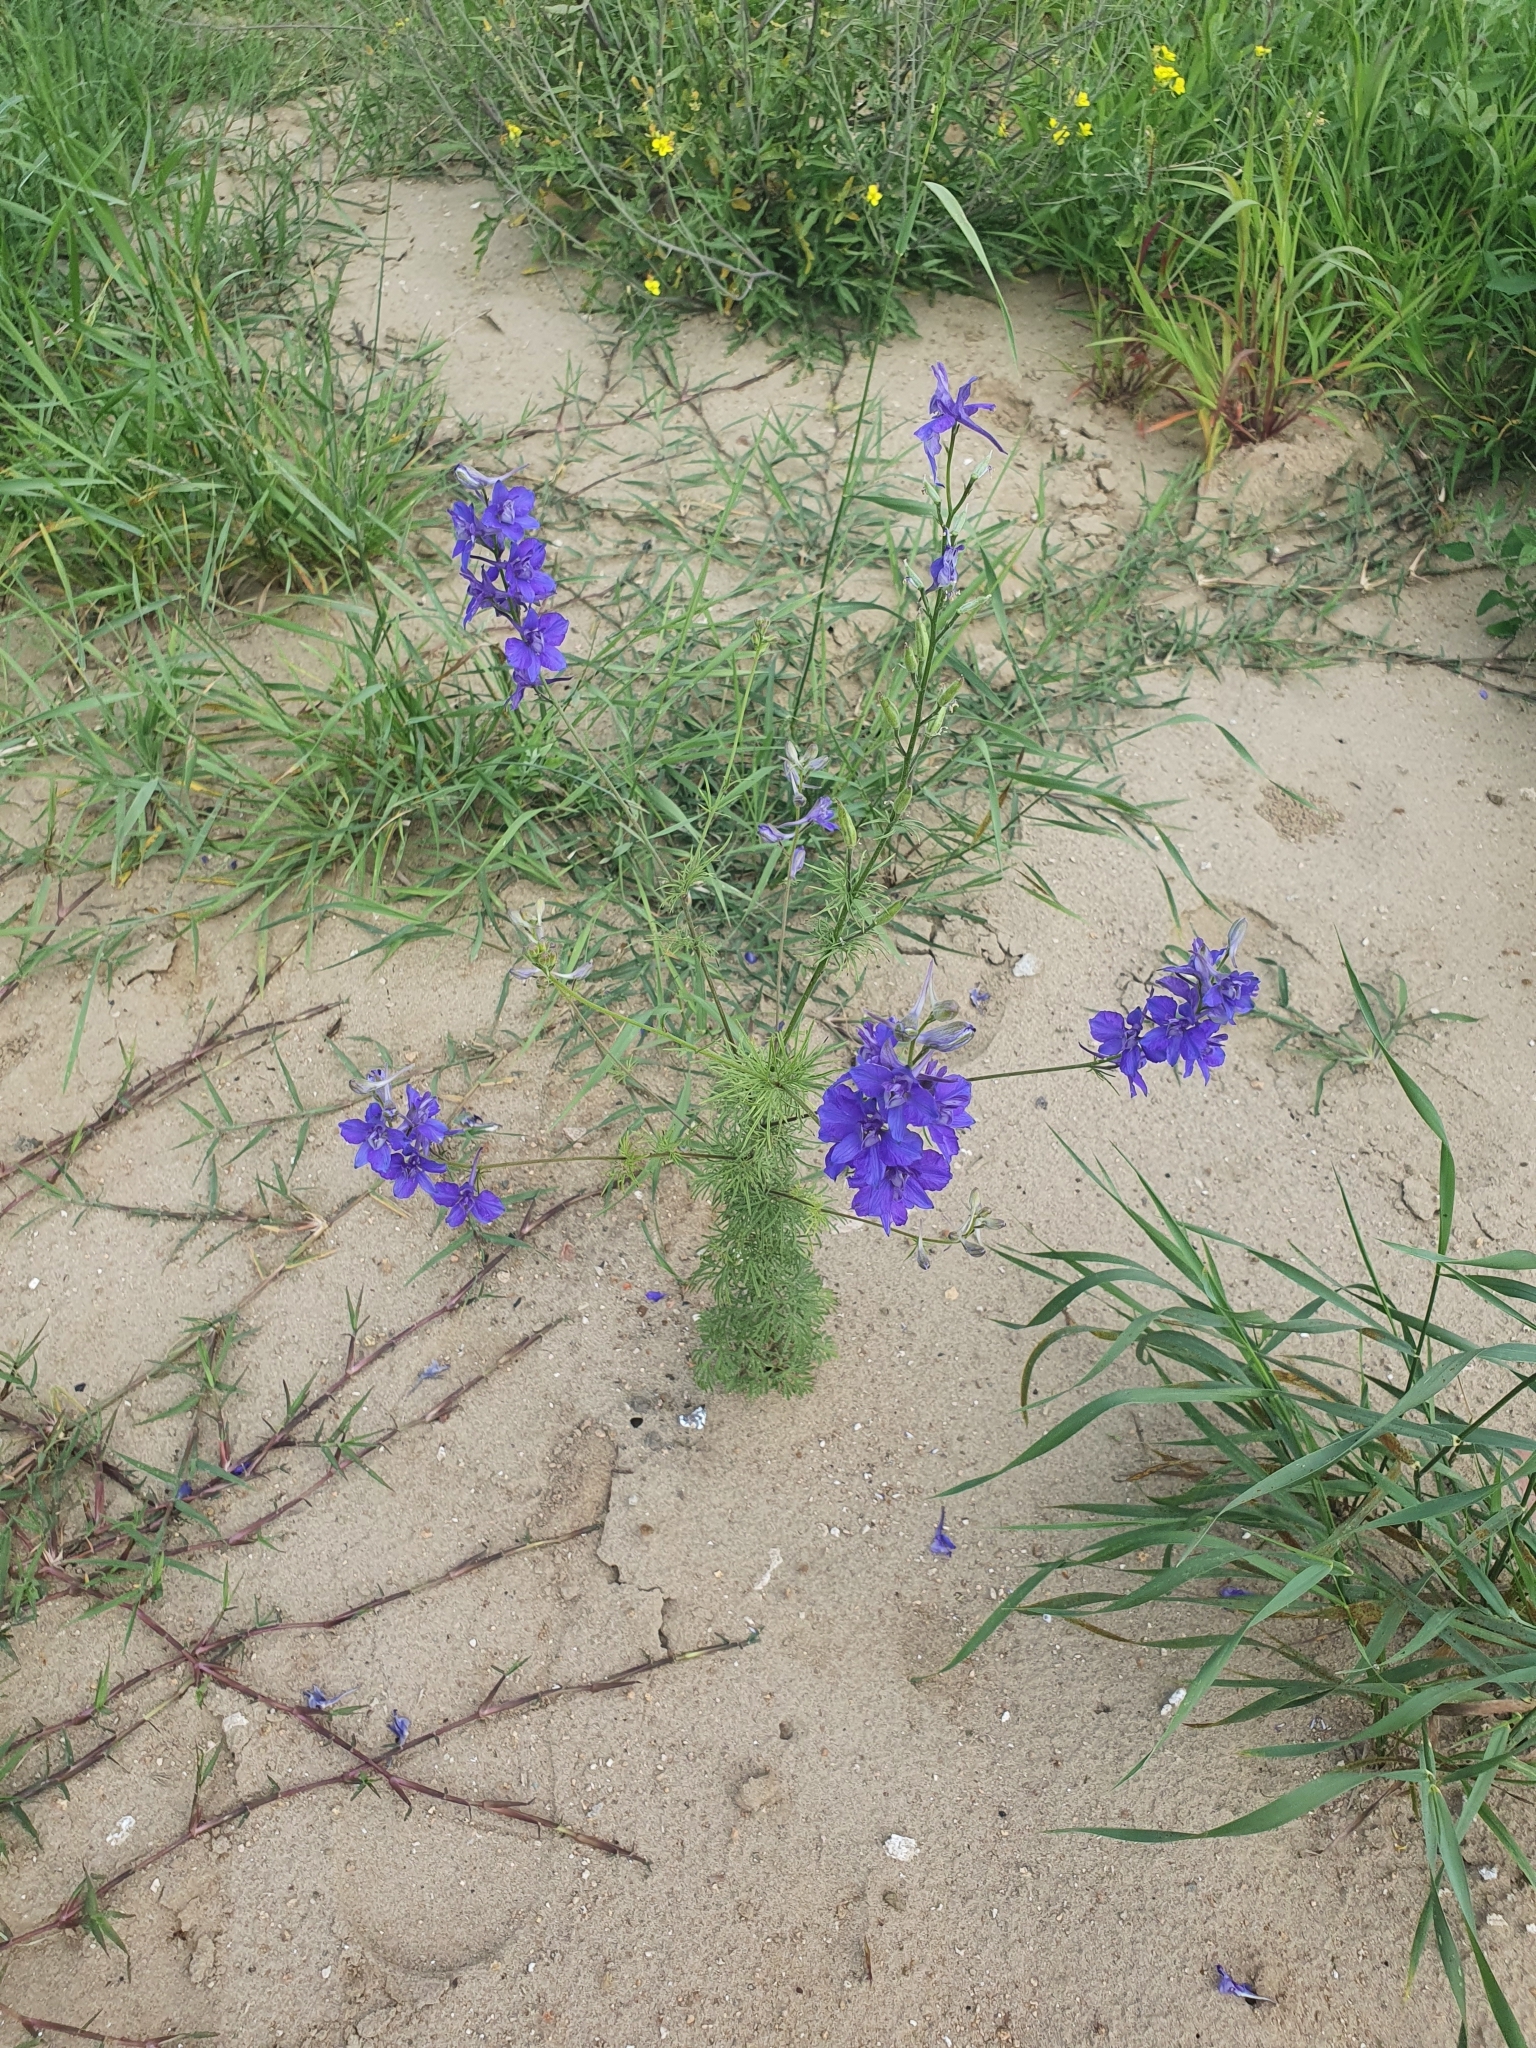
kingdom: Plantae
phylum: Tracheophyta
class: Magnoliopsida
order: Ranunculales
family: Ranunculaceae
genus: Delphinium
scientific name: Delphinium ajacis
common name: Doubtful knight's-spur
